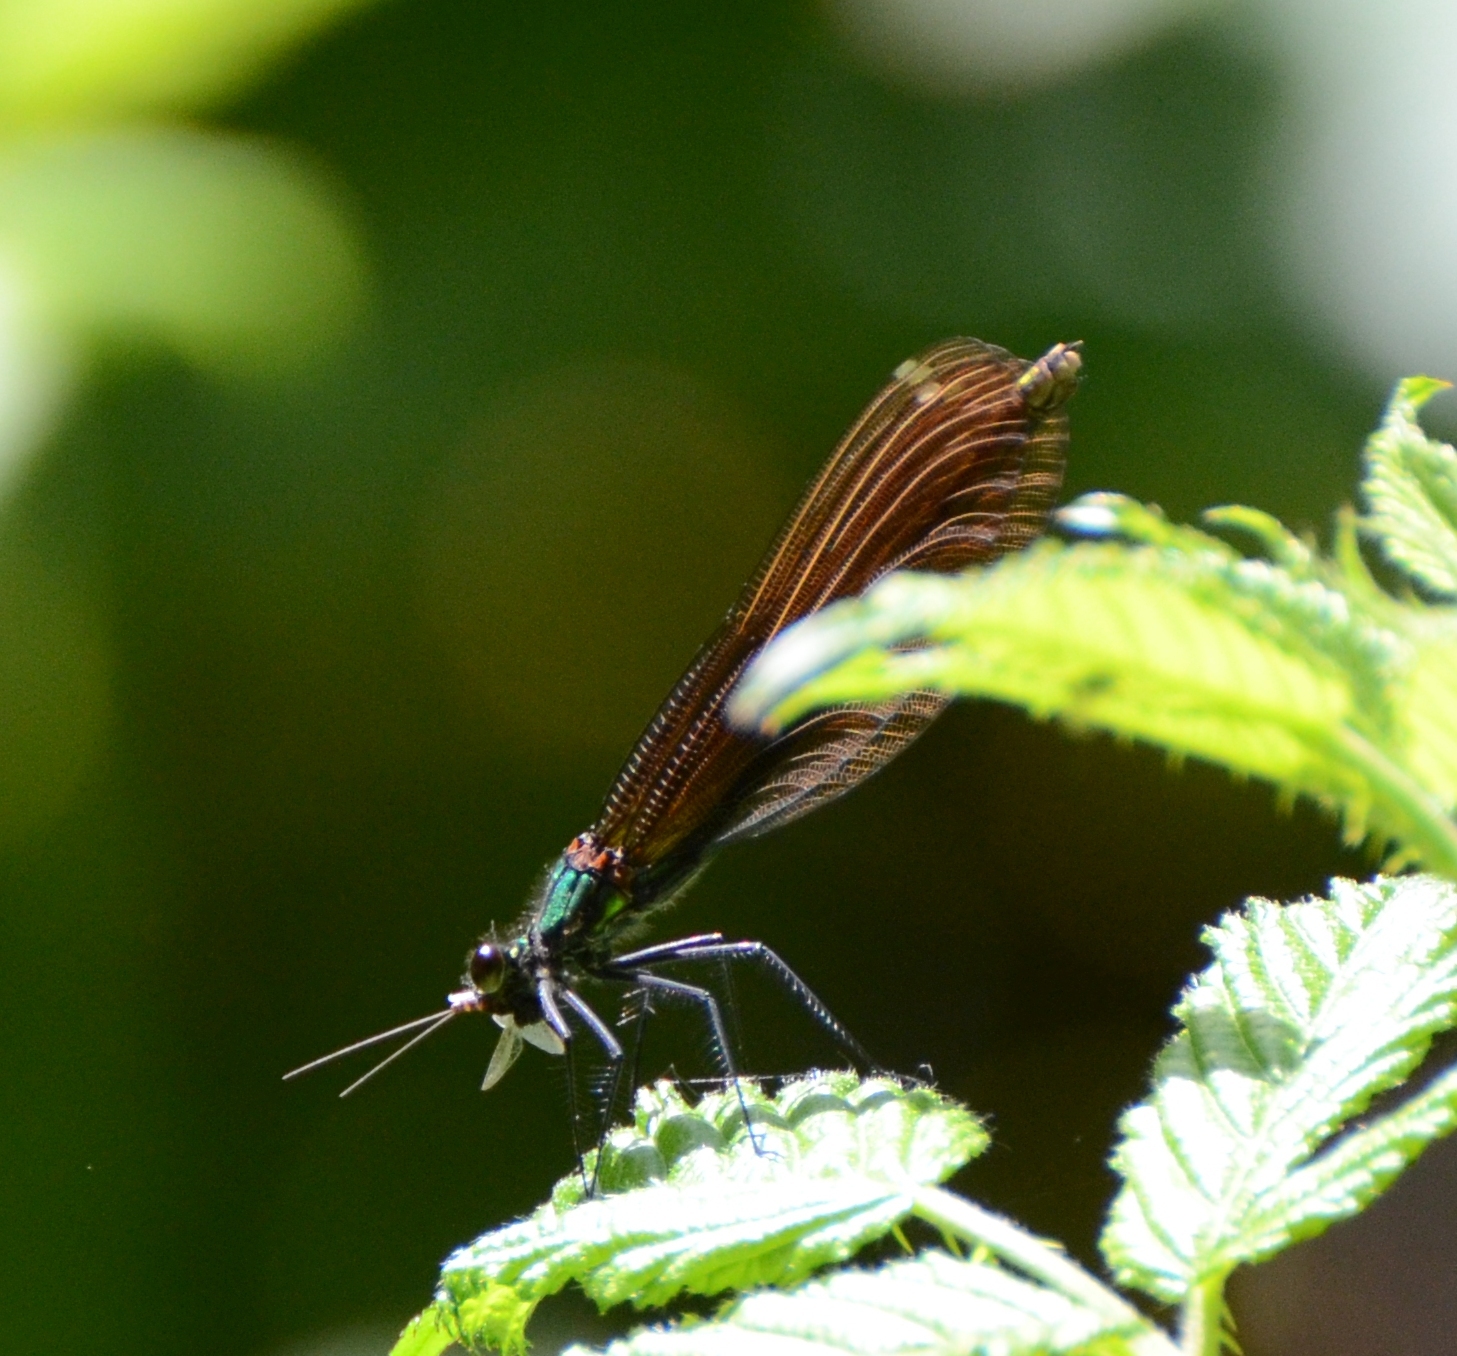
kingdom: Animalia
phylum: Arthropoda
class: Insecta
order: Odonata
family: Calopterygidae
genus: Calopteryx
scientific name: Calopteryx virgo
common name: Beautiful demoiselle
